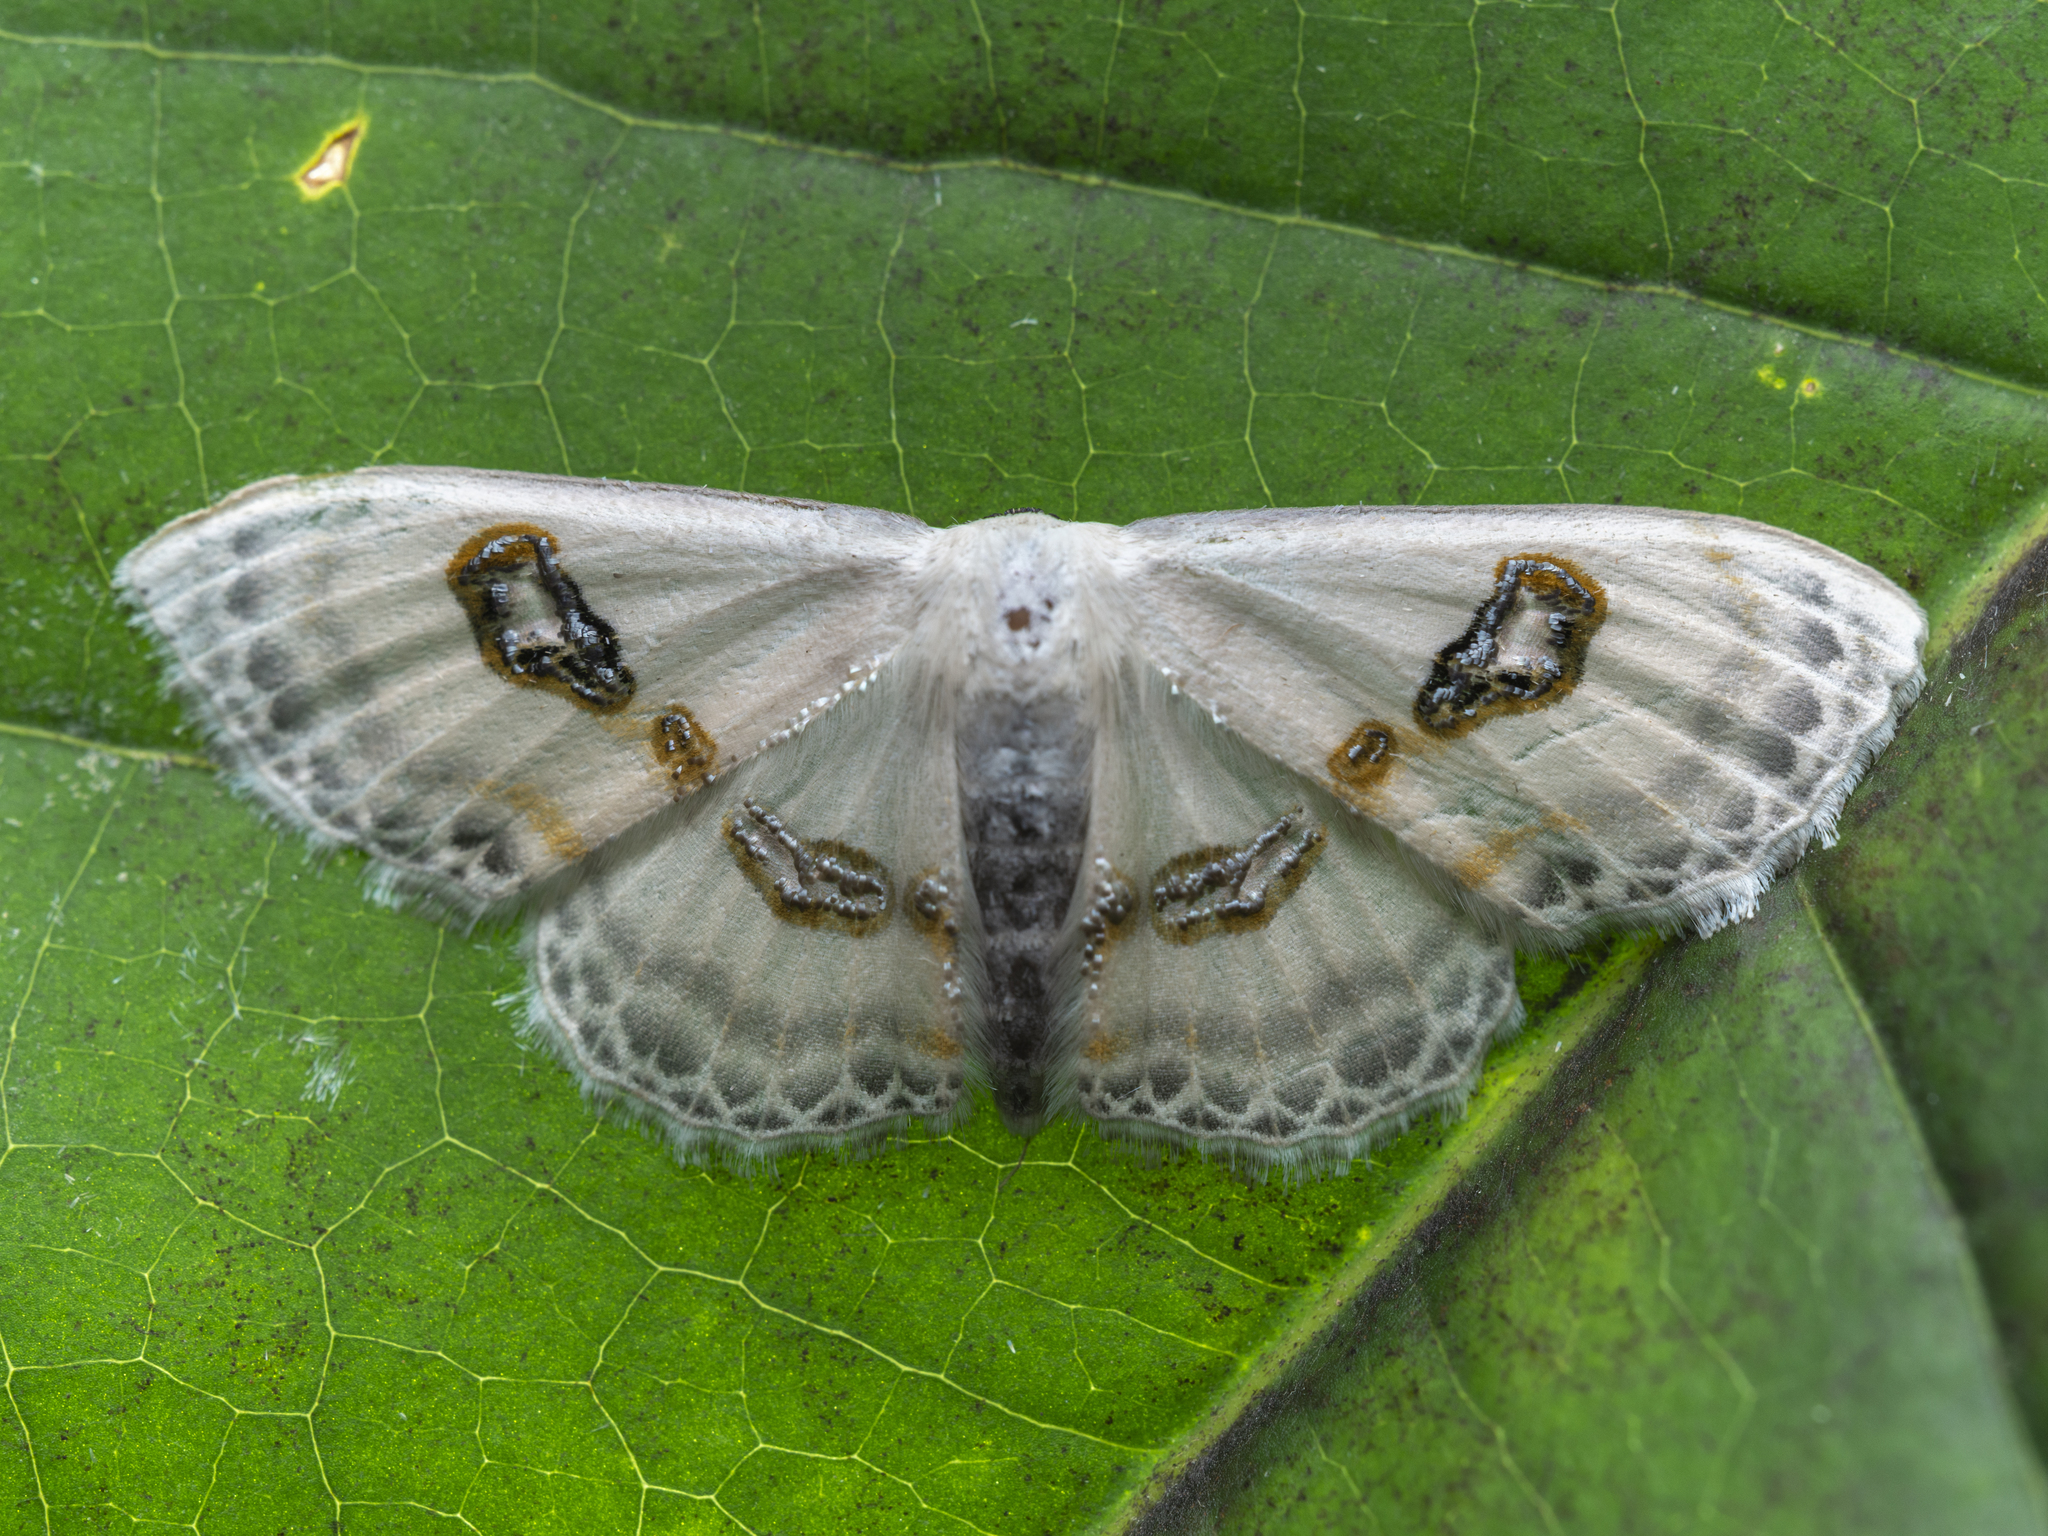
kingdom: Animalia
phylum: Arthropoda
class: Insecta
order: Lepidoptera
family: Geometridae
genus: Problepsis
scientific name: Problepsis vulgaris
